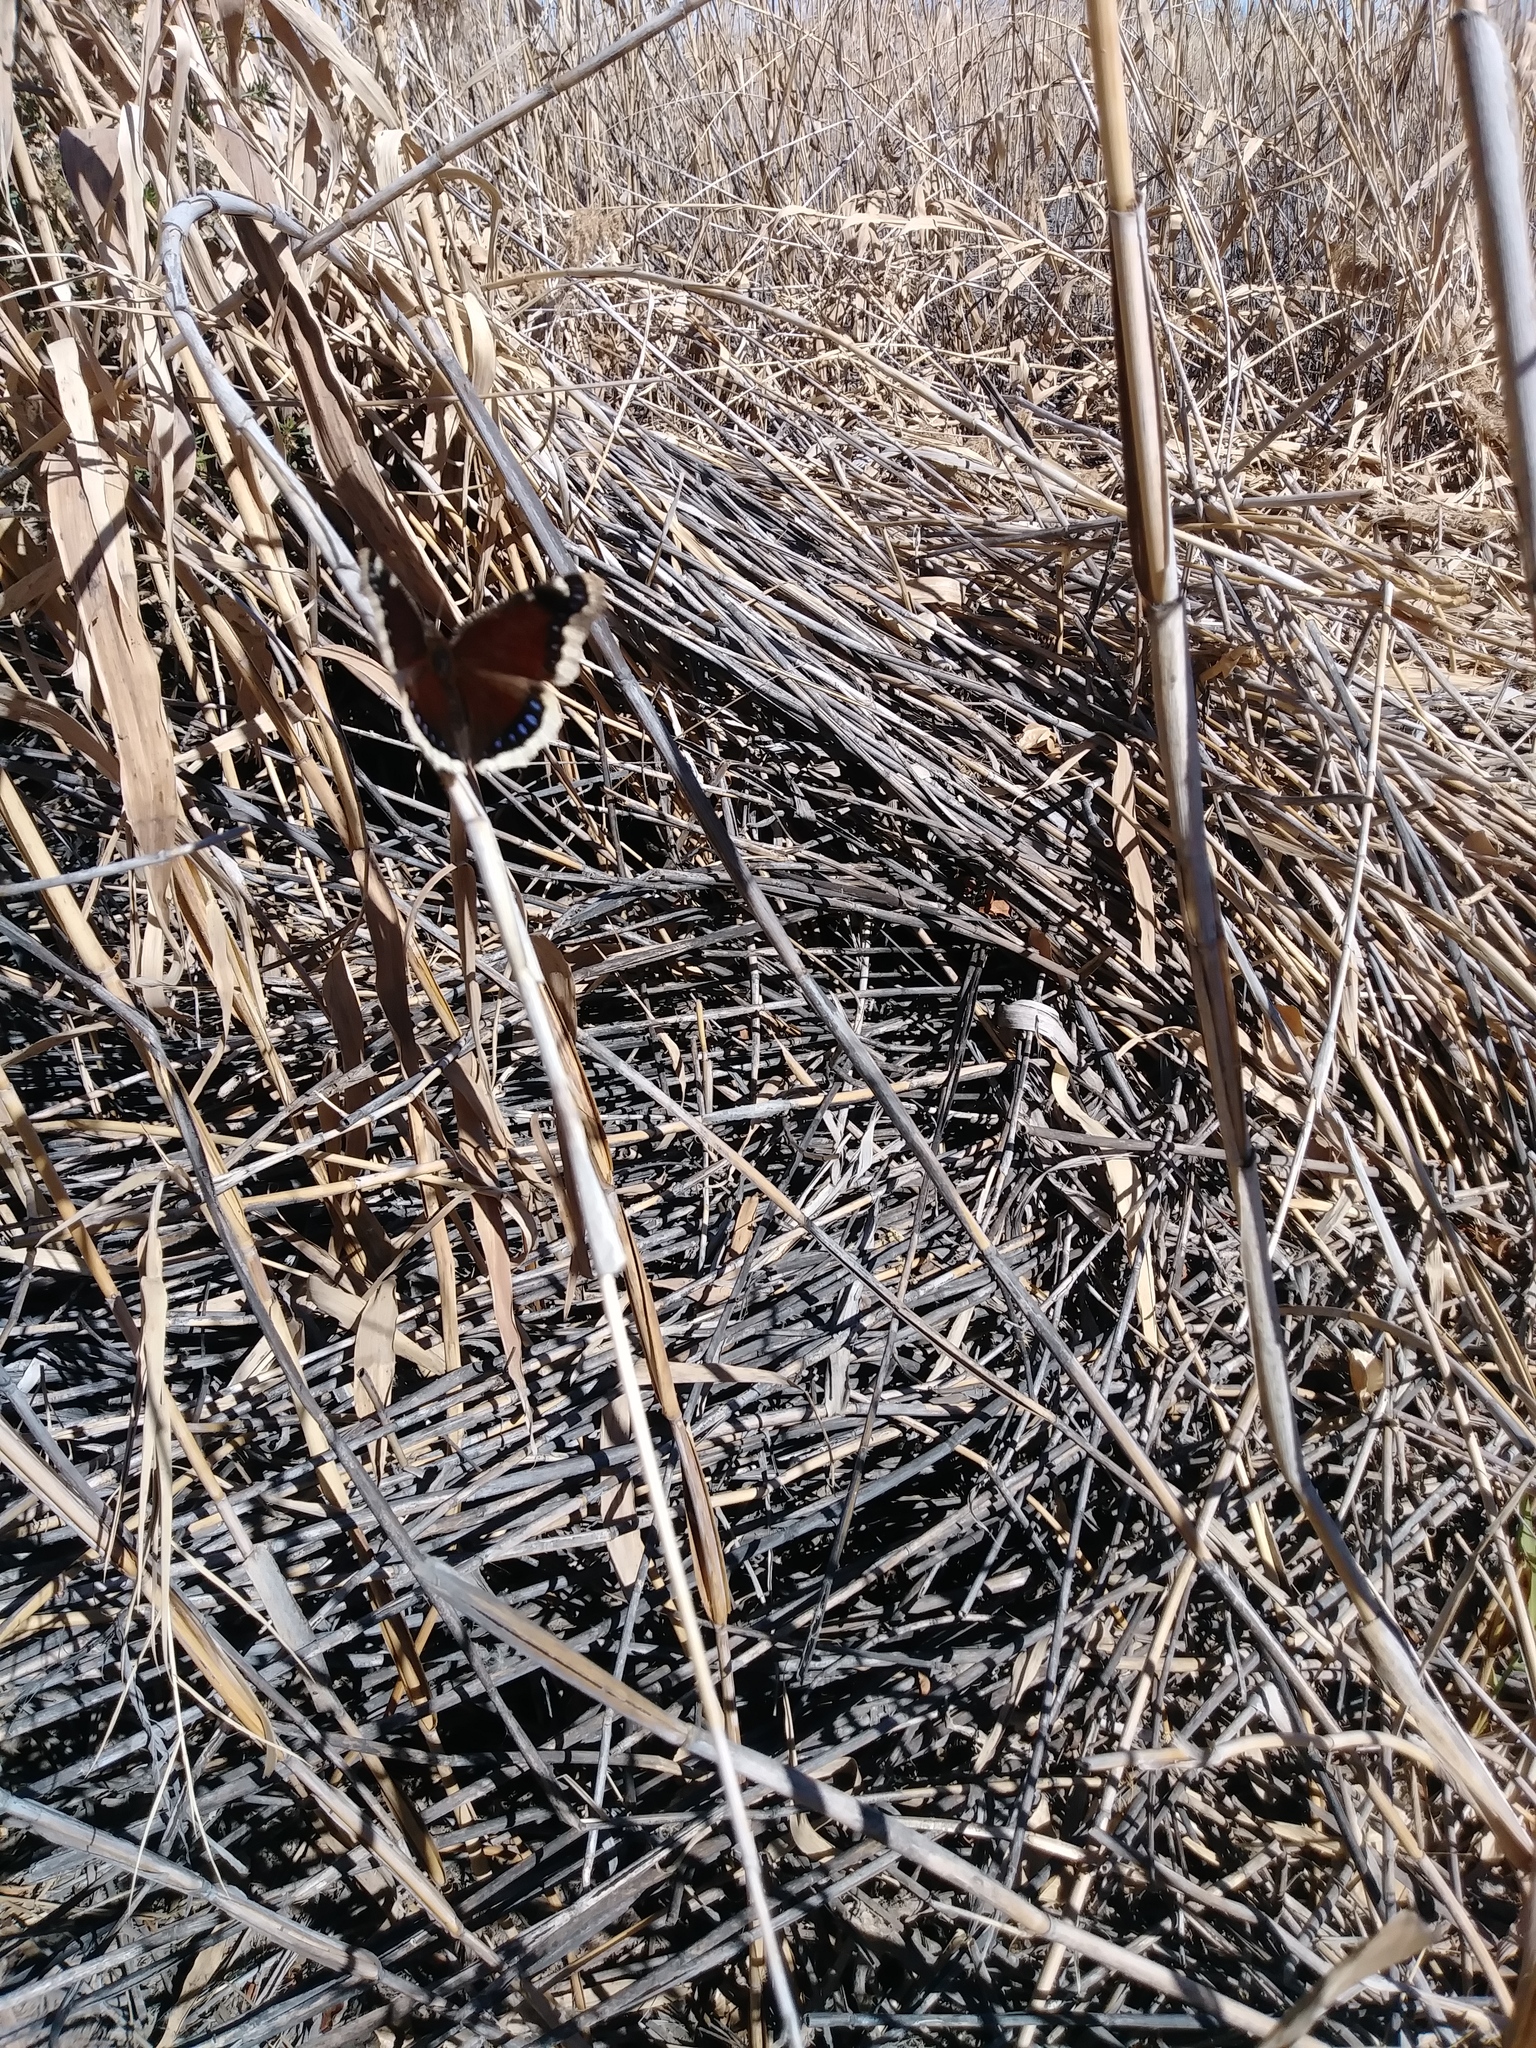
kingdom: Animalia
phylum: Arthropoda
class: Insecta
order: Lepidoptera
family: Nymphalidae
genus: Nymphalis
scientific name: Nymphalis antiopa
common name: Camberwell beauty
